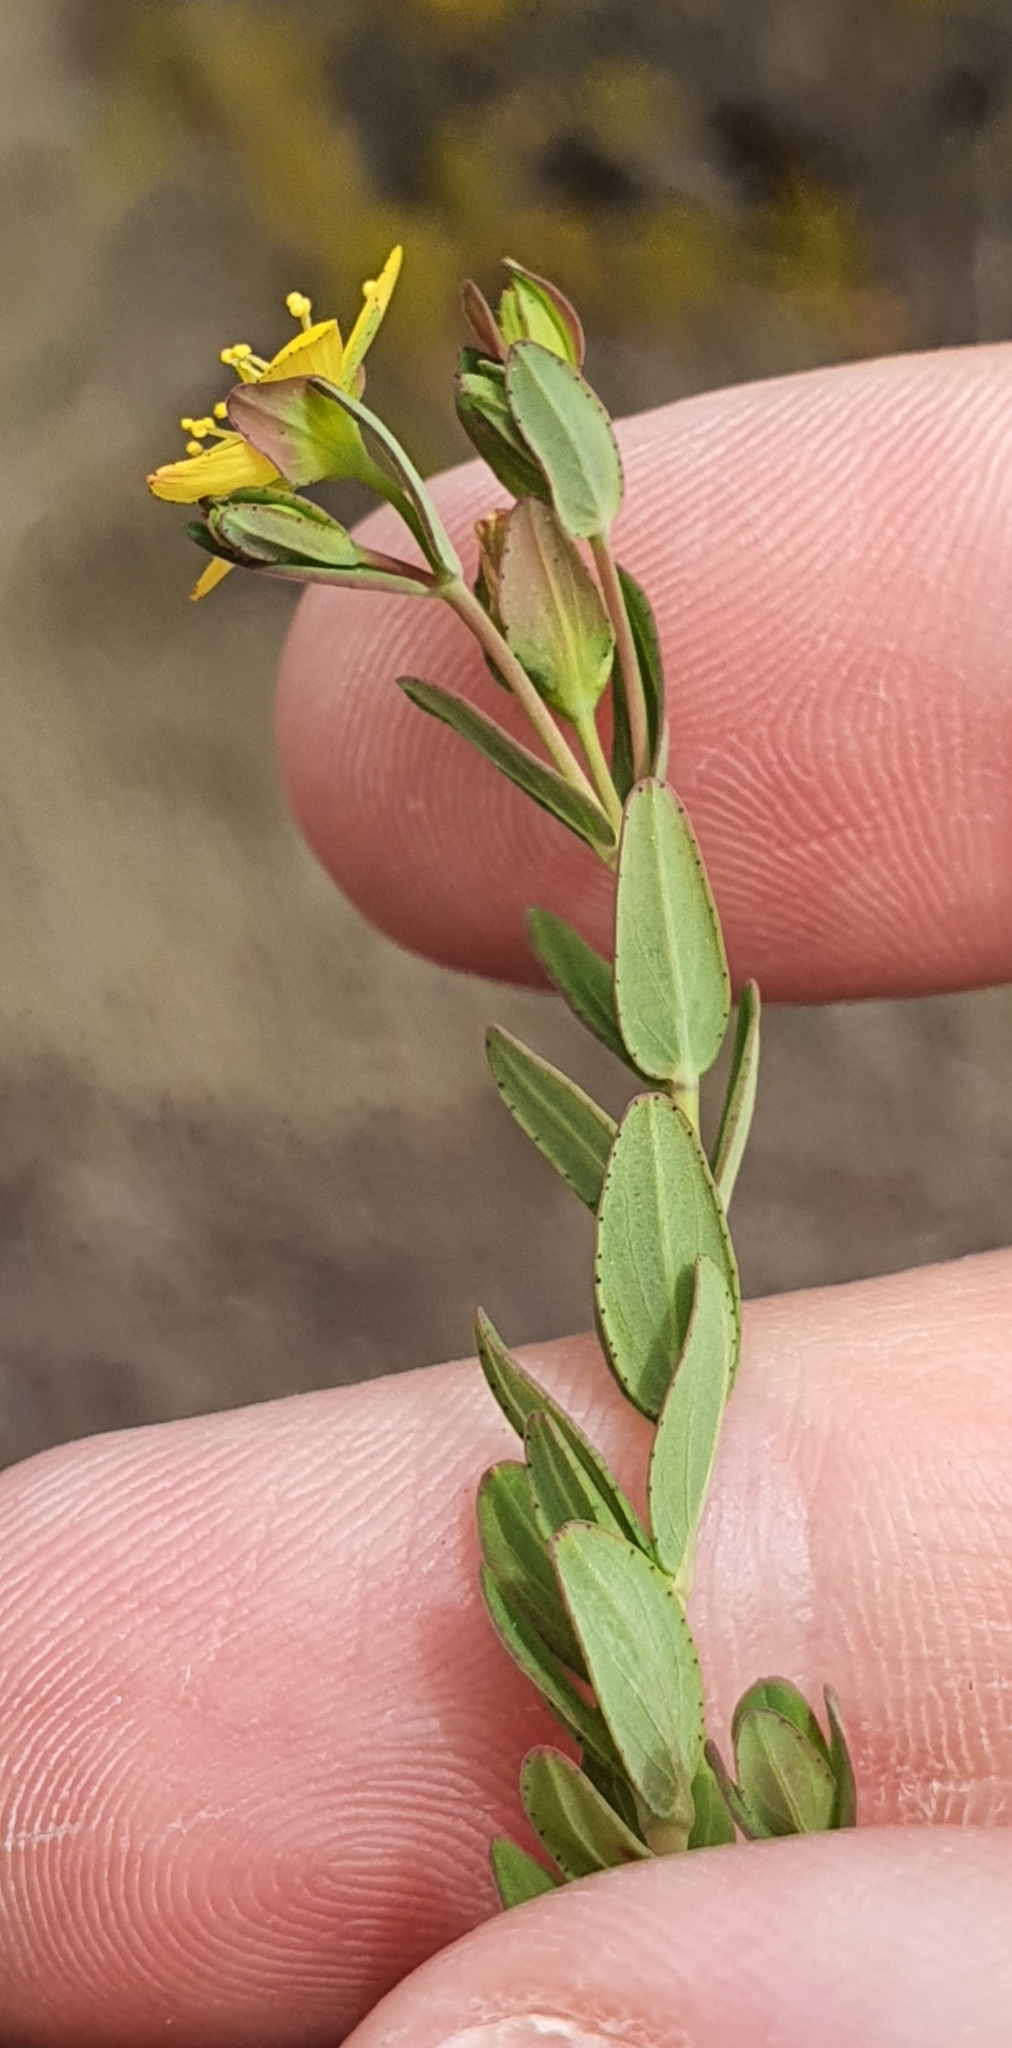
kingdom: Plantae
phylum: Tracheophyta
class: Magnoliopsida
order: Malpighiales
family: Hypericaceae
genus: Hypericum
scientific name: Hypericum humifusum
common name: Trailing st. john's-wort
